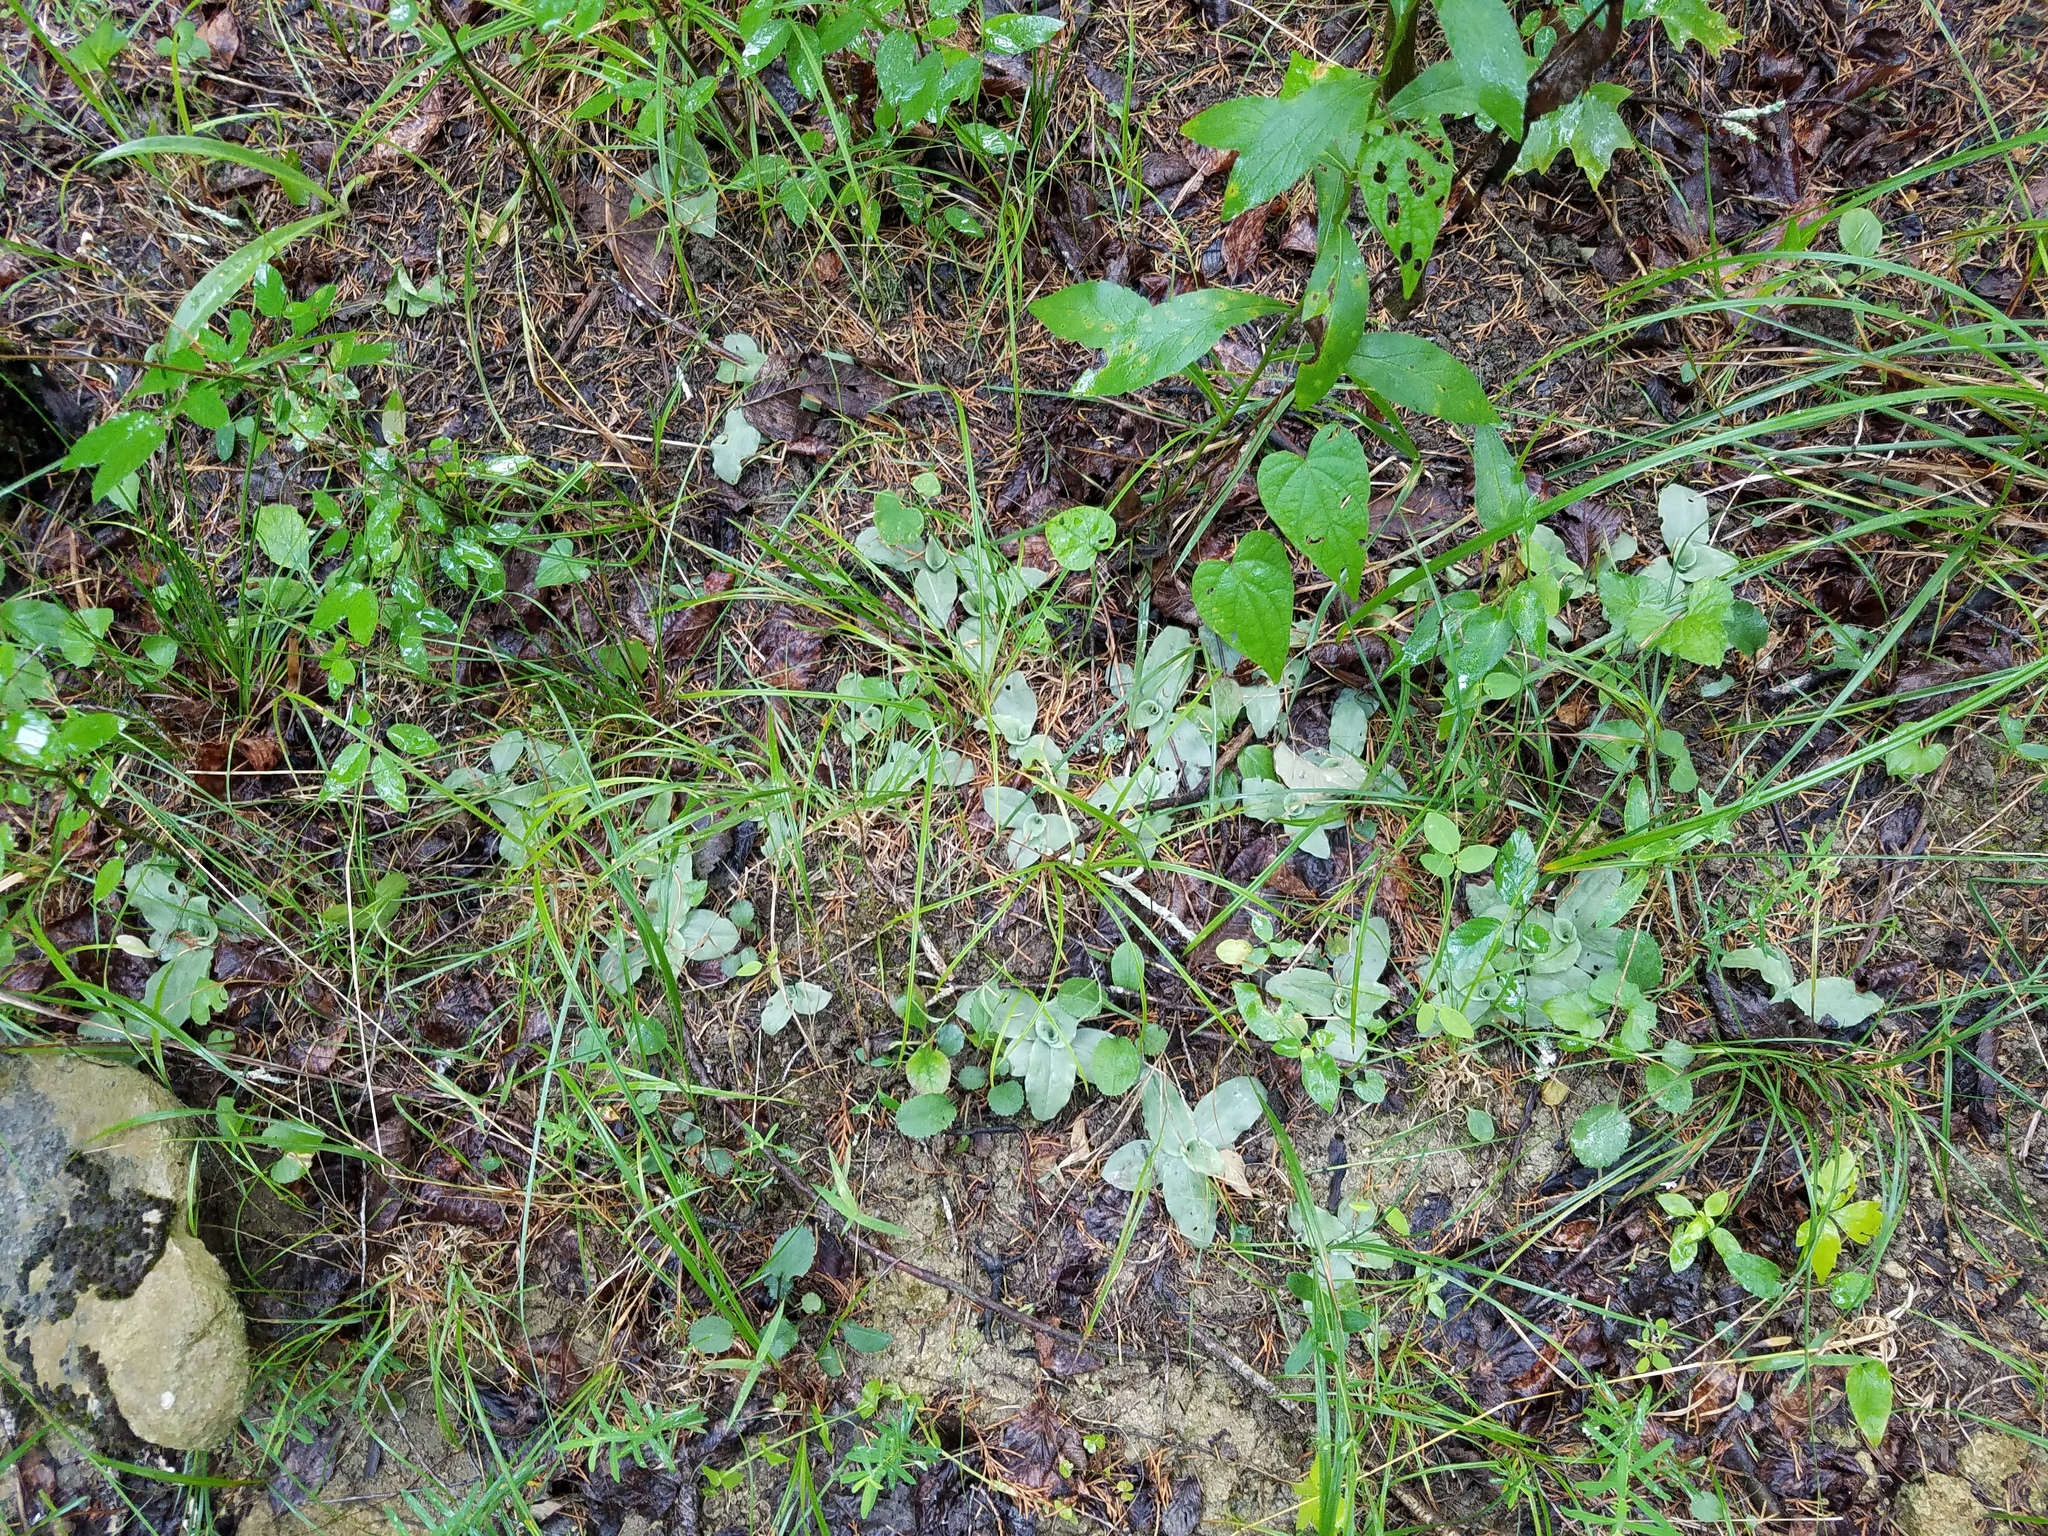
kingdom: Plantae
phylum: Tracheophyta
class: Liliopsida
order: Asparagales
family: Orchidaceae
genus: Ponthieva
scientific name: Ponthieva racemosa
